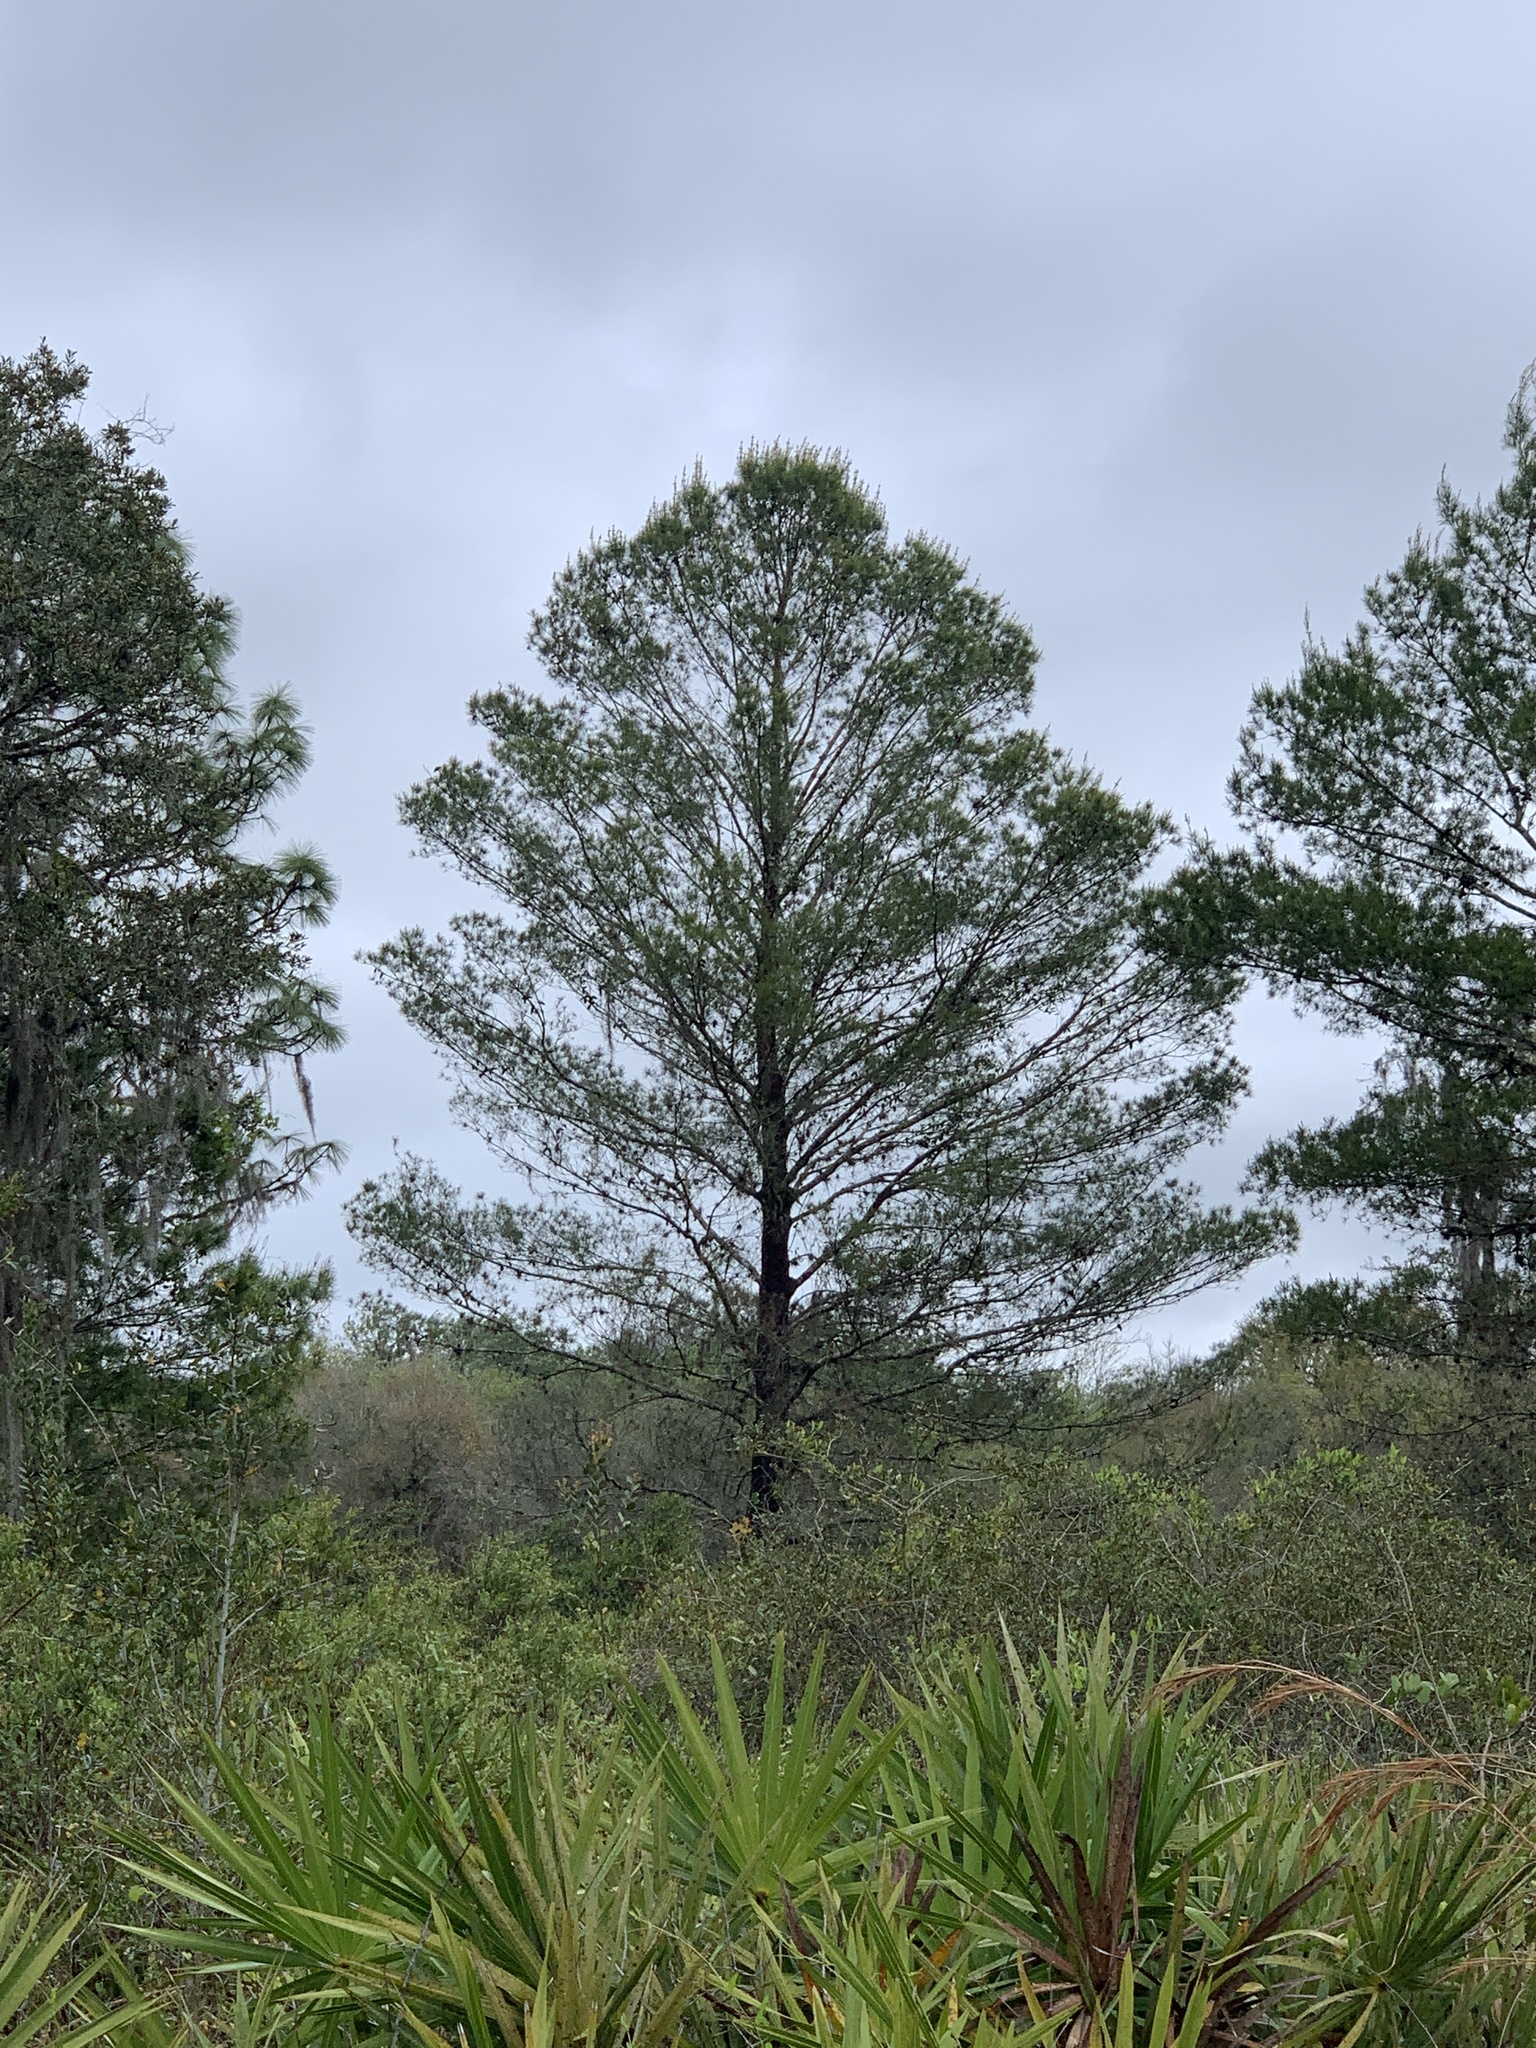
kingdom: Plantae
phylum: Tracheophyta
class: Pinopsida
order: Pinales
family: Pinaceae
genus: Pinus
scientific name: Pinus clausa
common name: Sand pine
